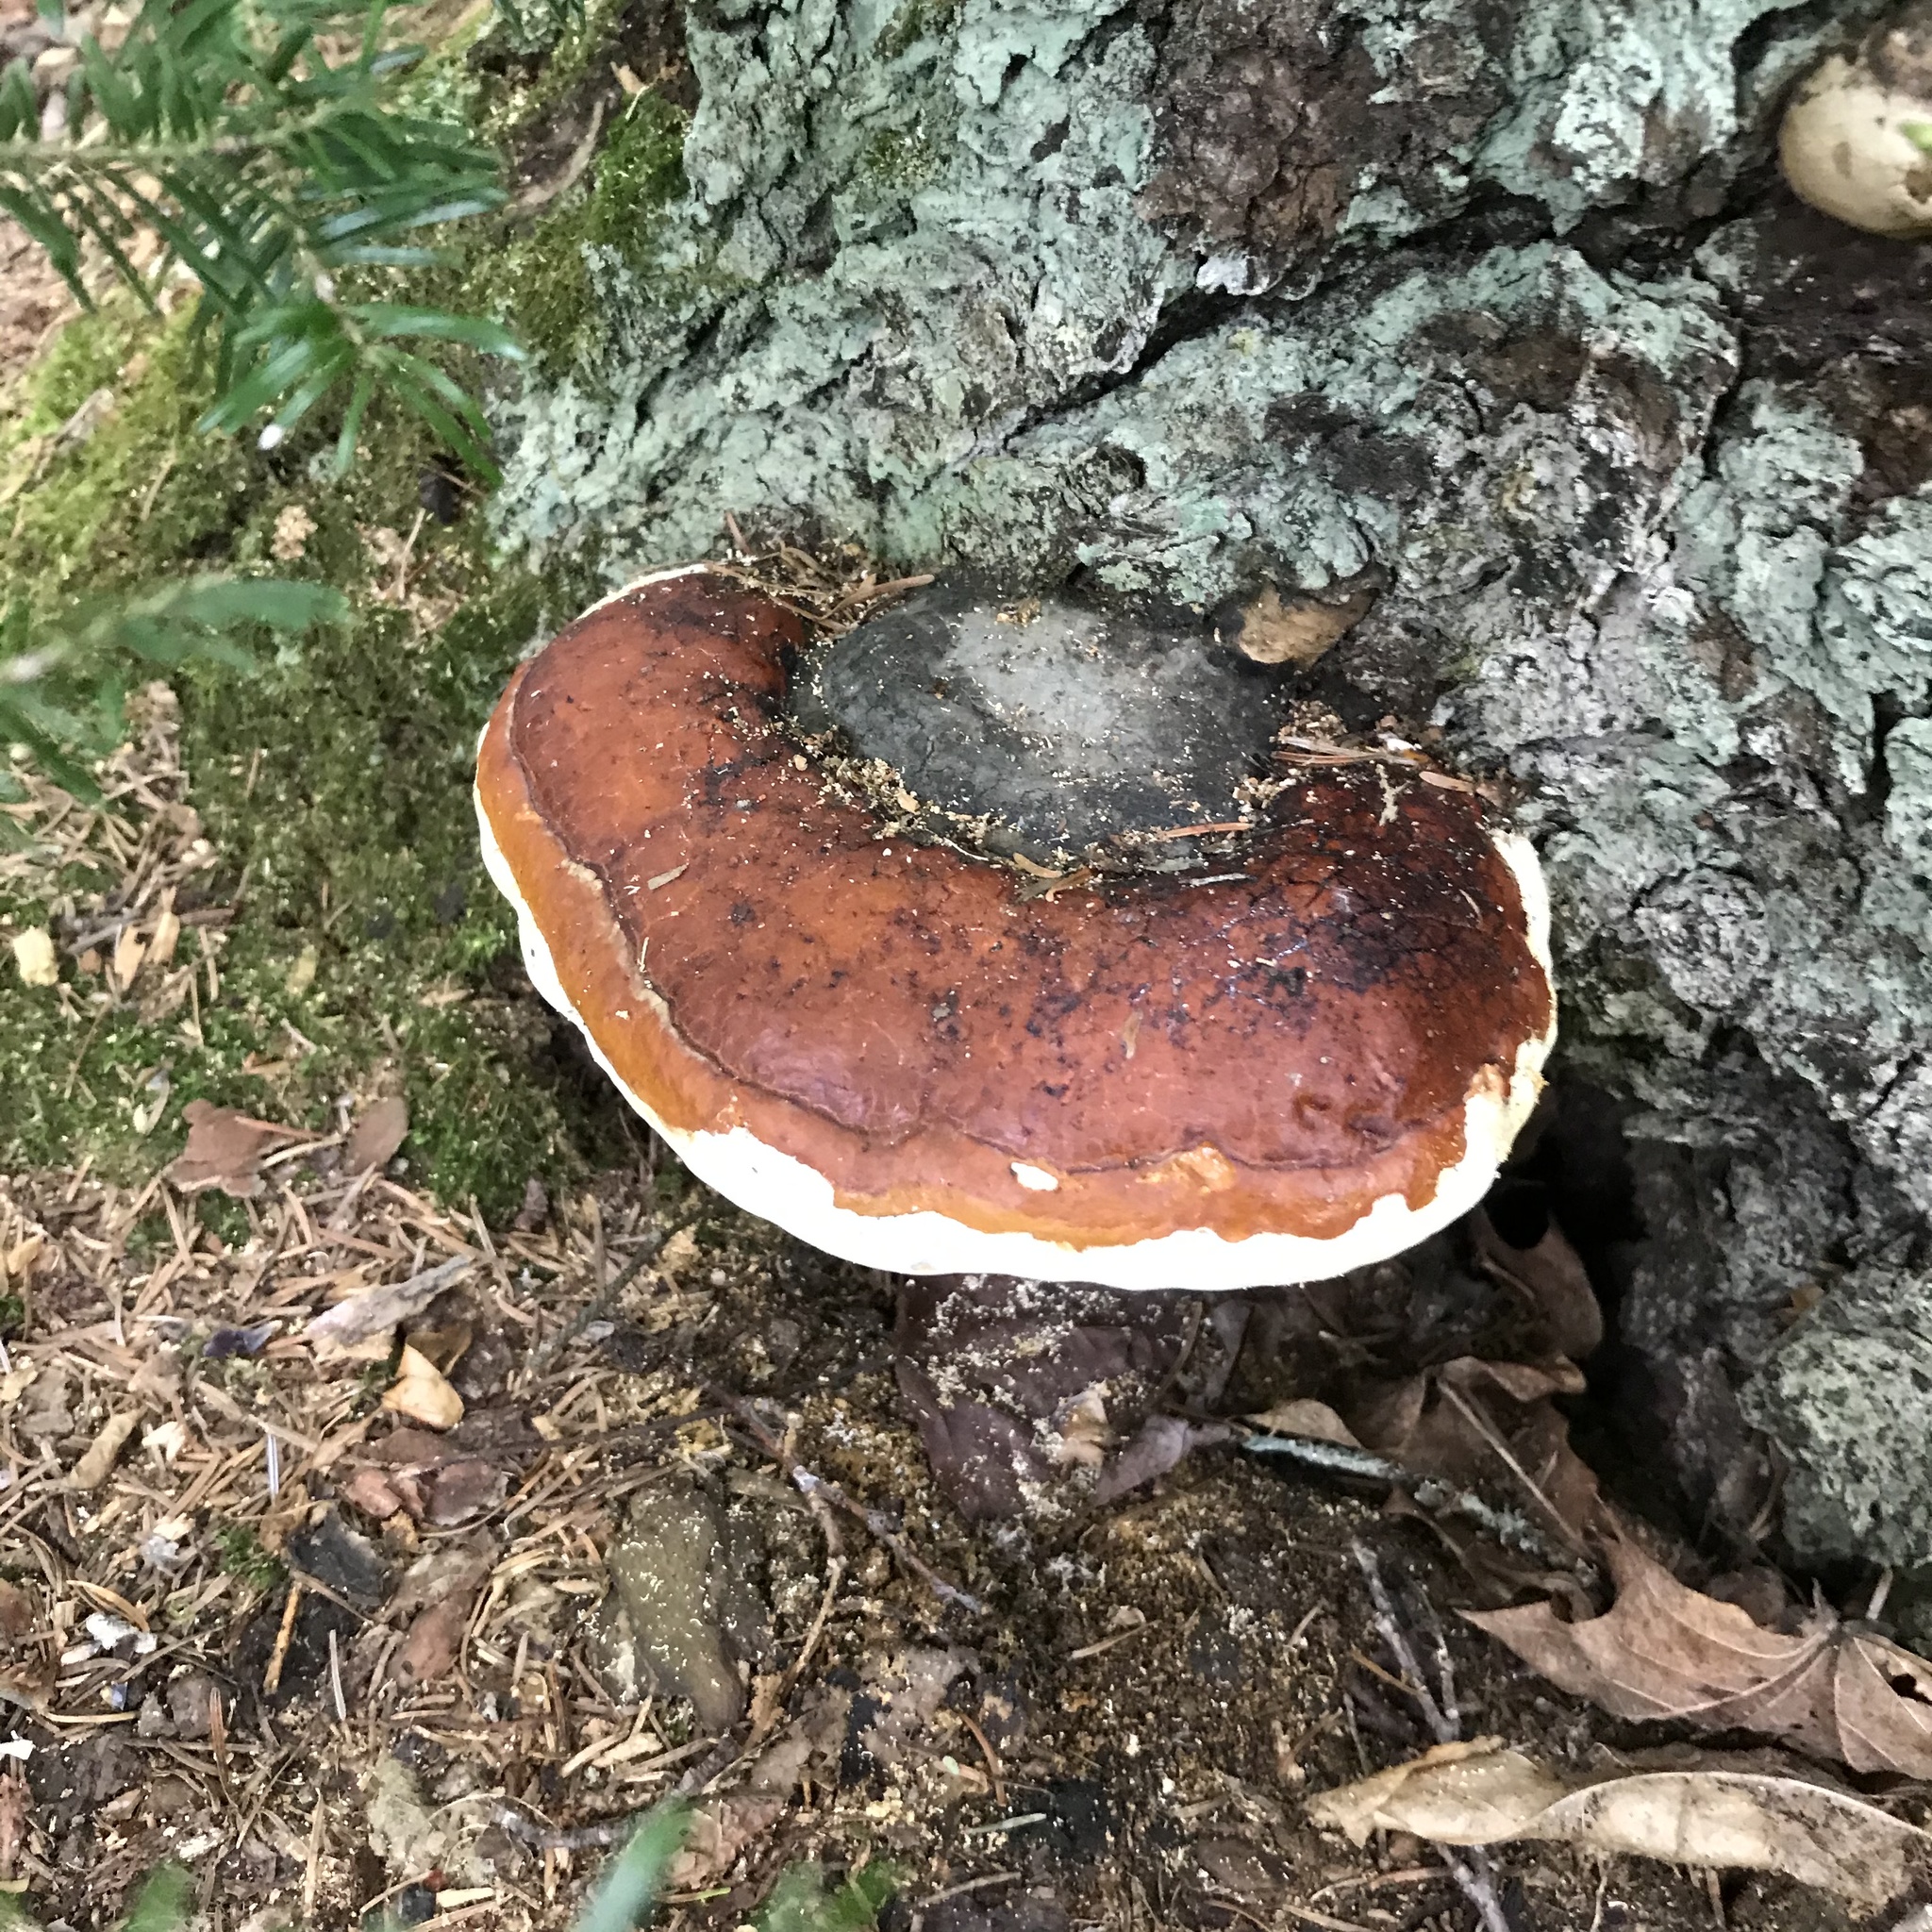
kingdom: Fungi
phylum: Basidiomycota
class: Agaricomycetes
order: Polyporales
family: Fomitopsidaceae
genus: Fomitopsis
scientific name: Fomitopsis mounceae
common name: Northern red belt
